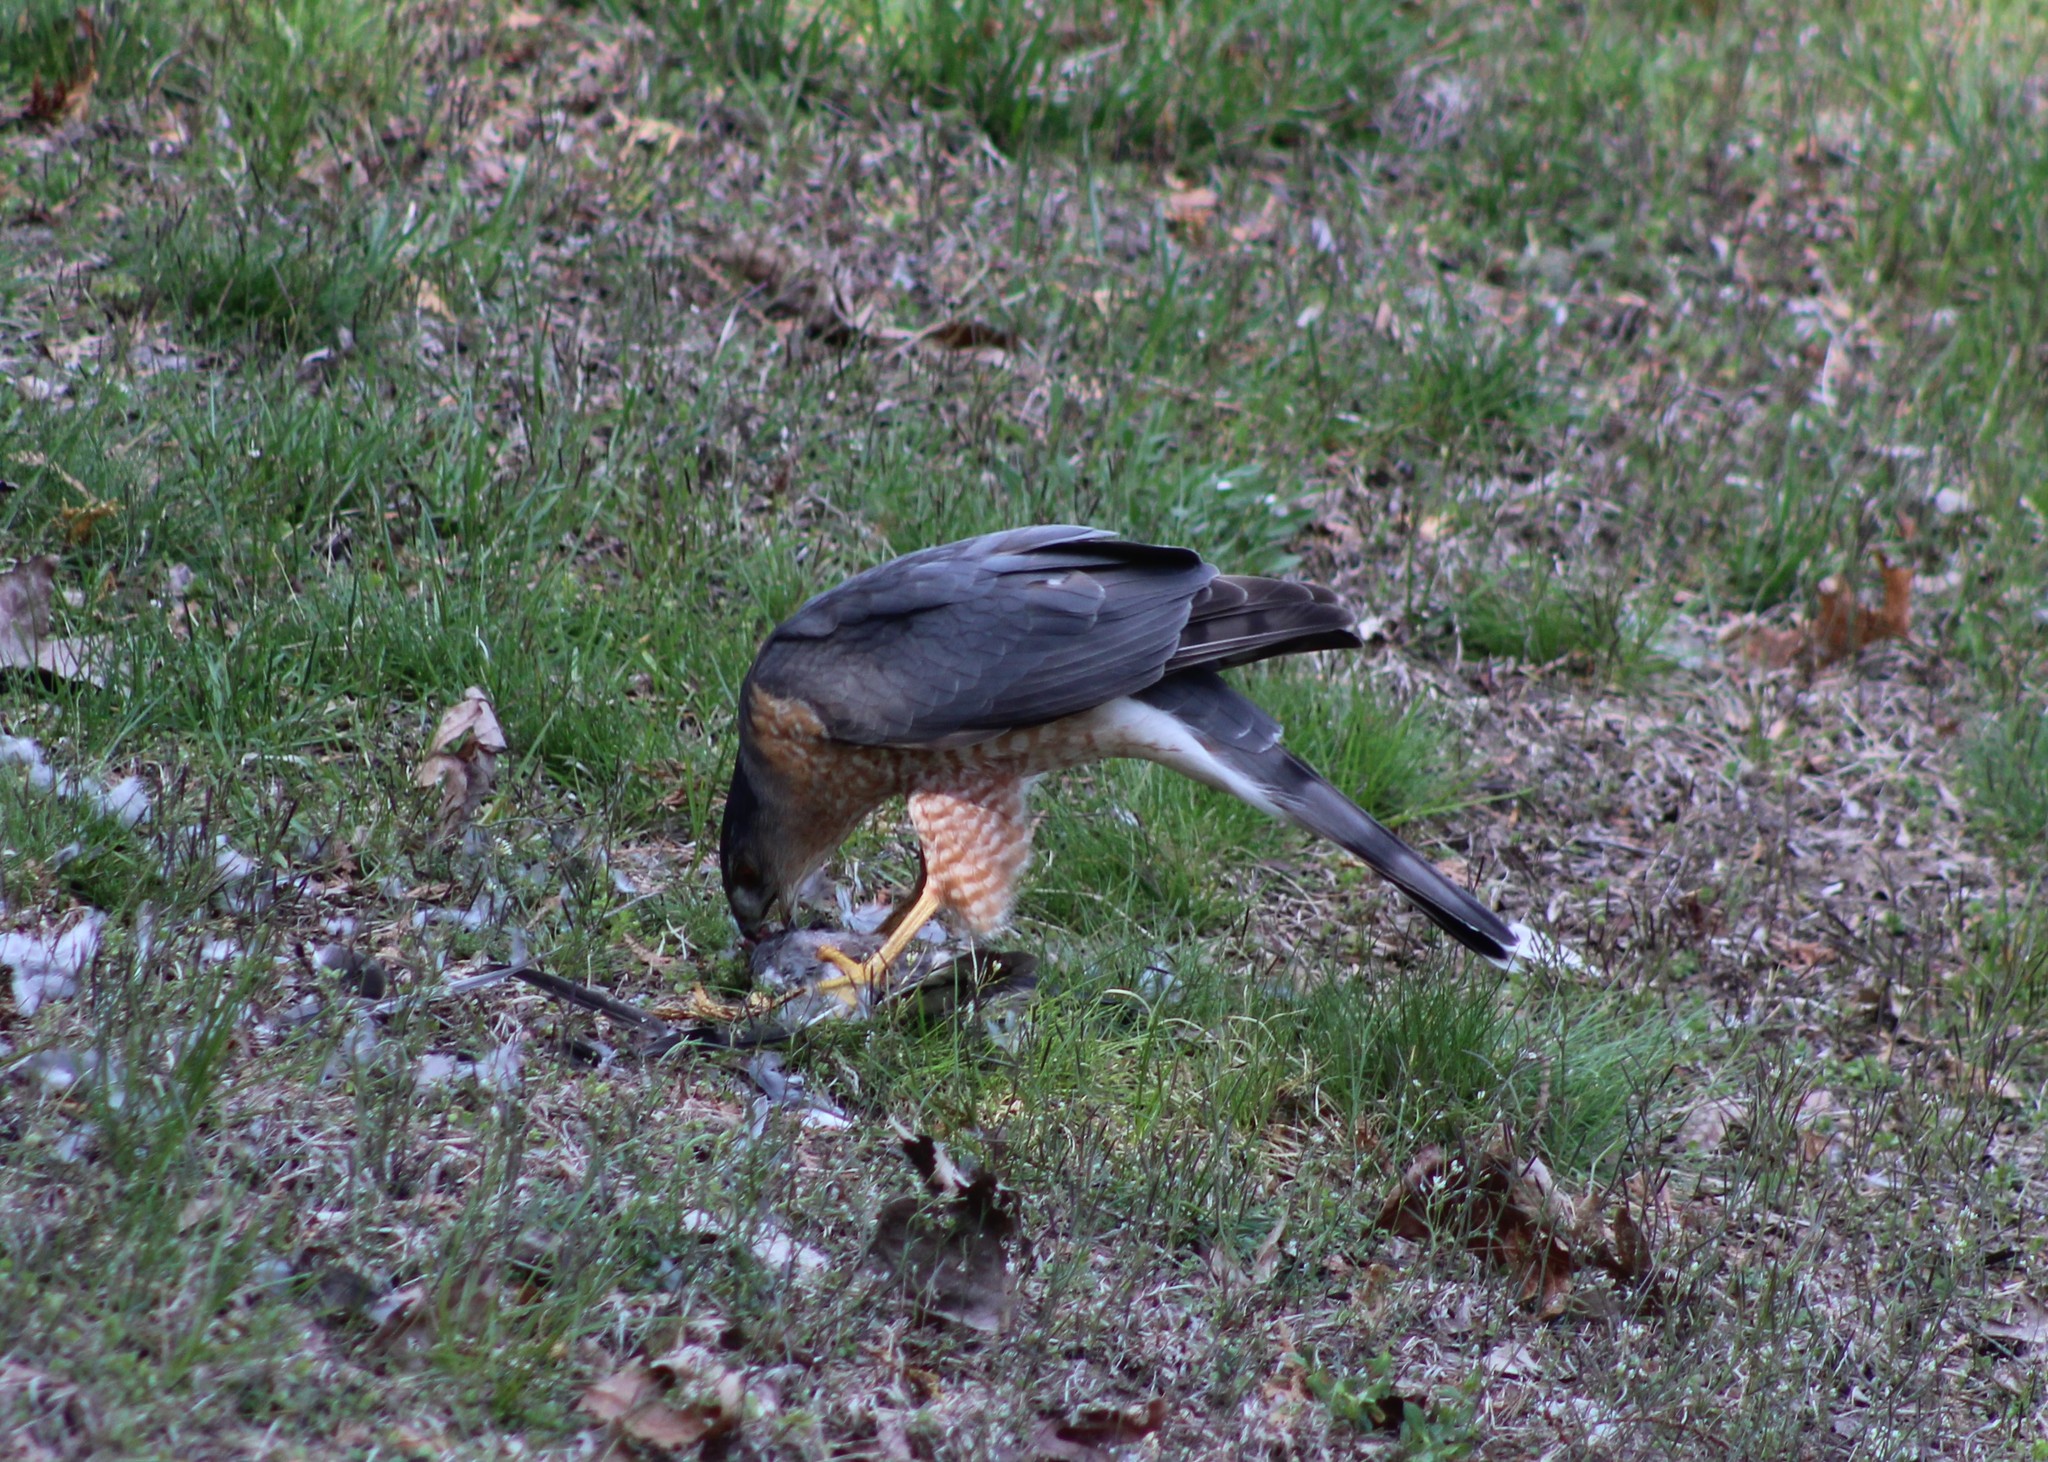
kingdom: Animalia
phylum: Chordata
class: Aves
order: Accipitriformes
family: Accipitridae
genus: Accipiter
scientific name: Accipiter cooperii
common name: Cooper's hawk
